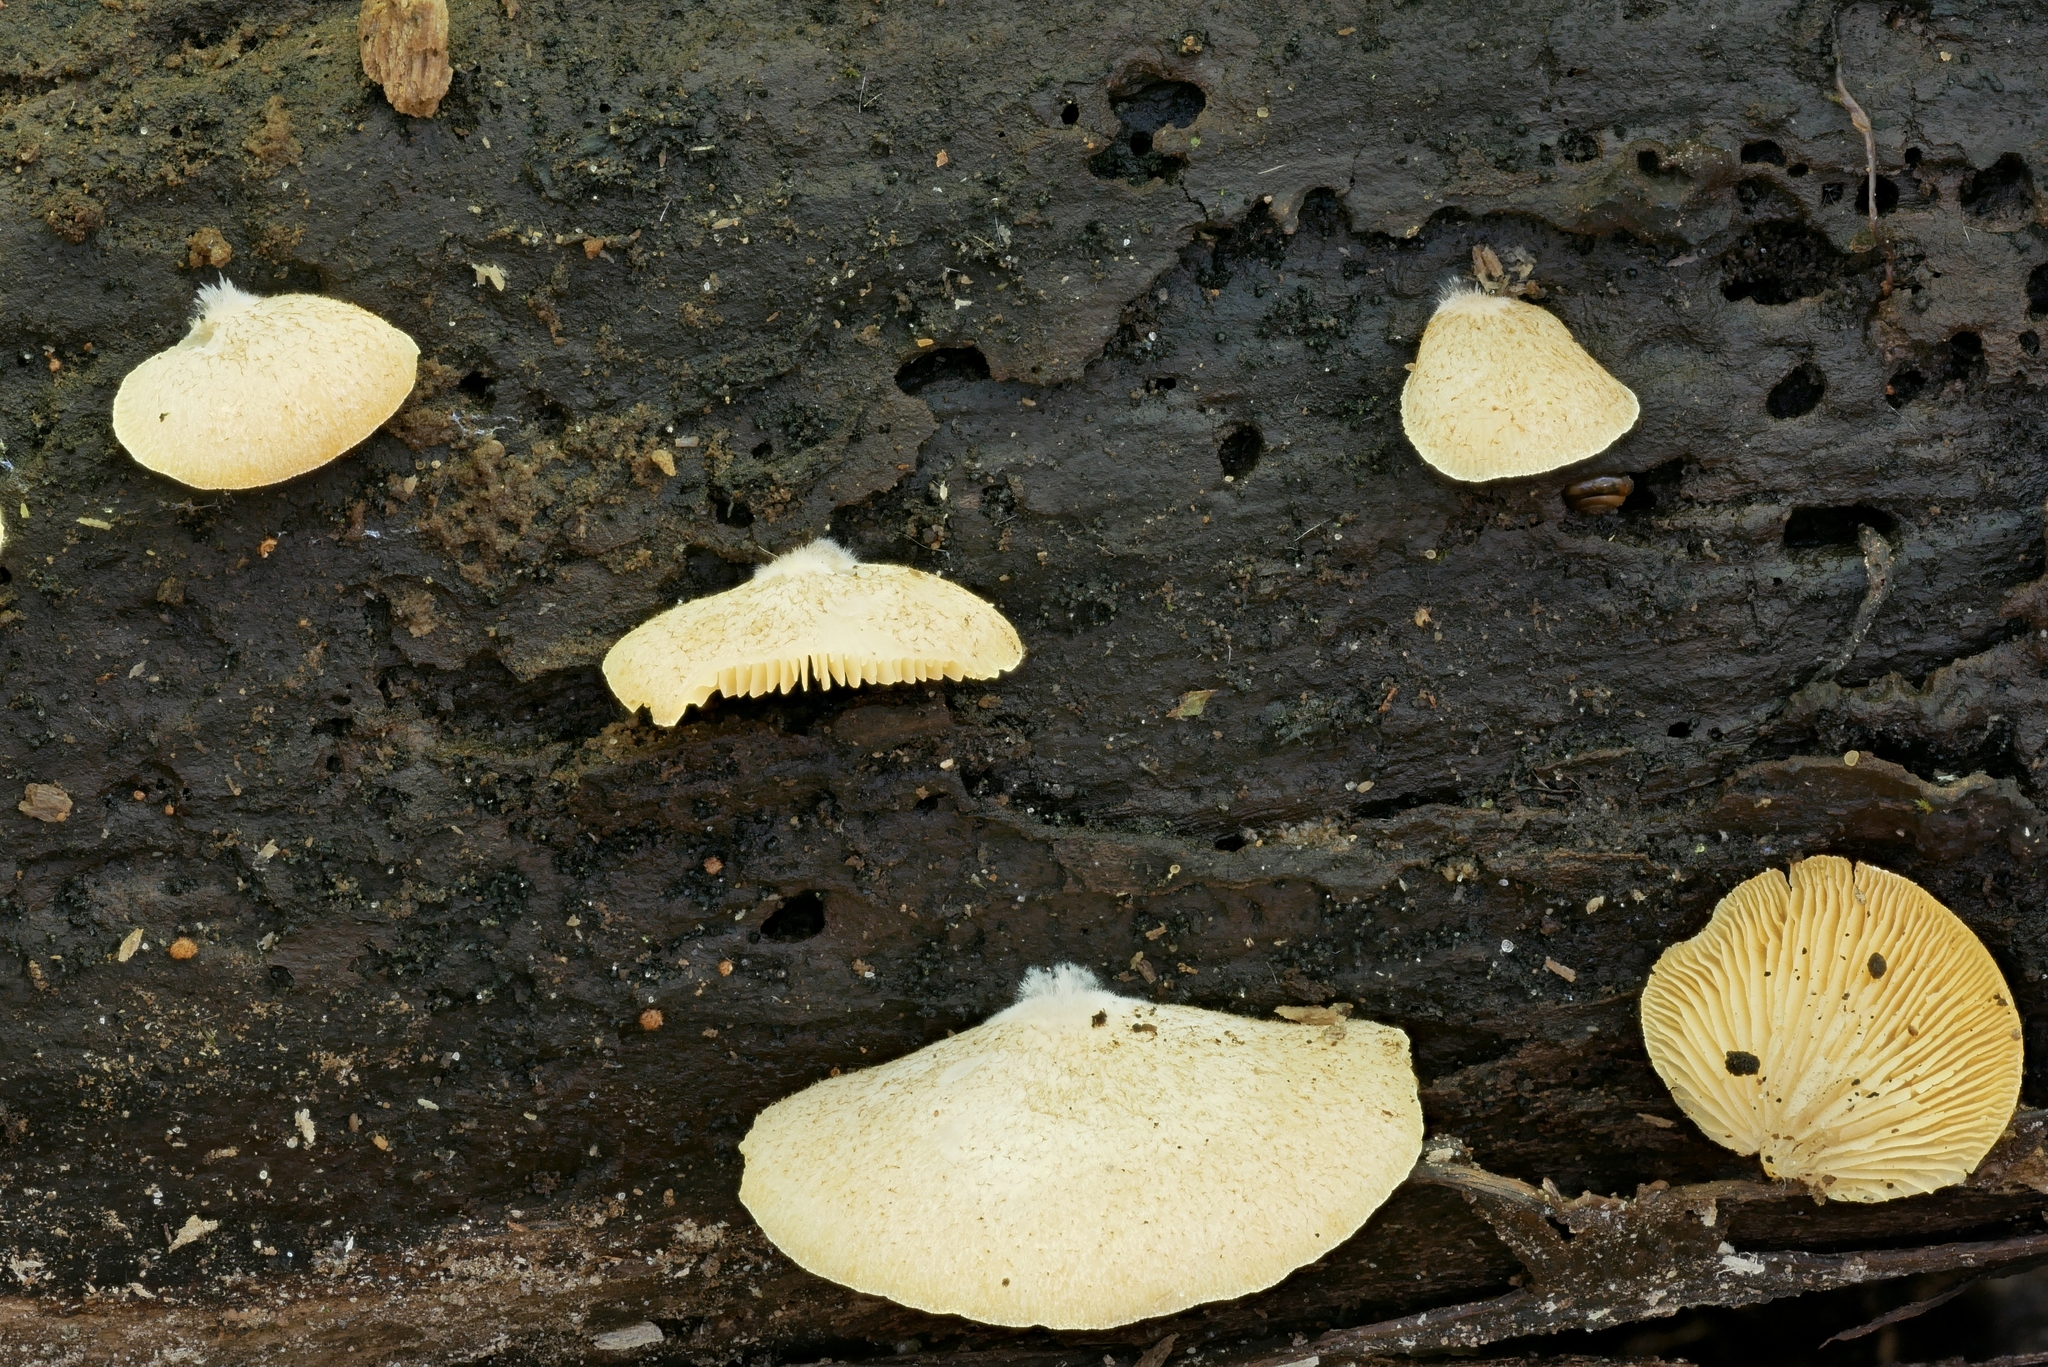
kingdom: Fungi
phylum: Basidiomycota
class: Agaricomycetes
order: Agaricales
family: Crepidotaceae
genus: Crepidotus
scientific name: Crepidotus crocophyllus
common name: Saffron oysterling
